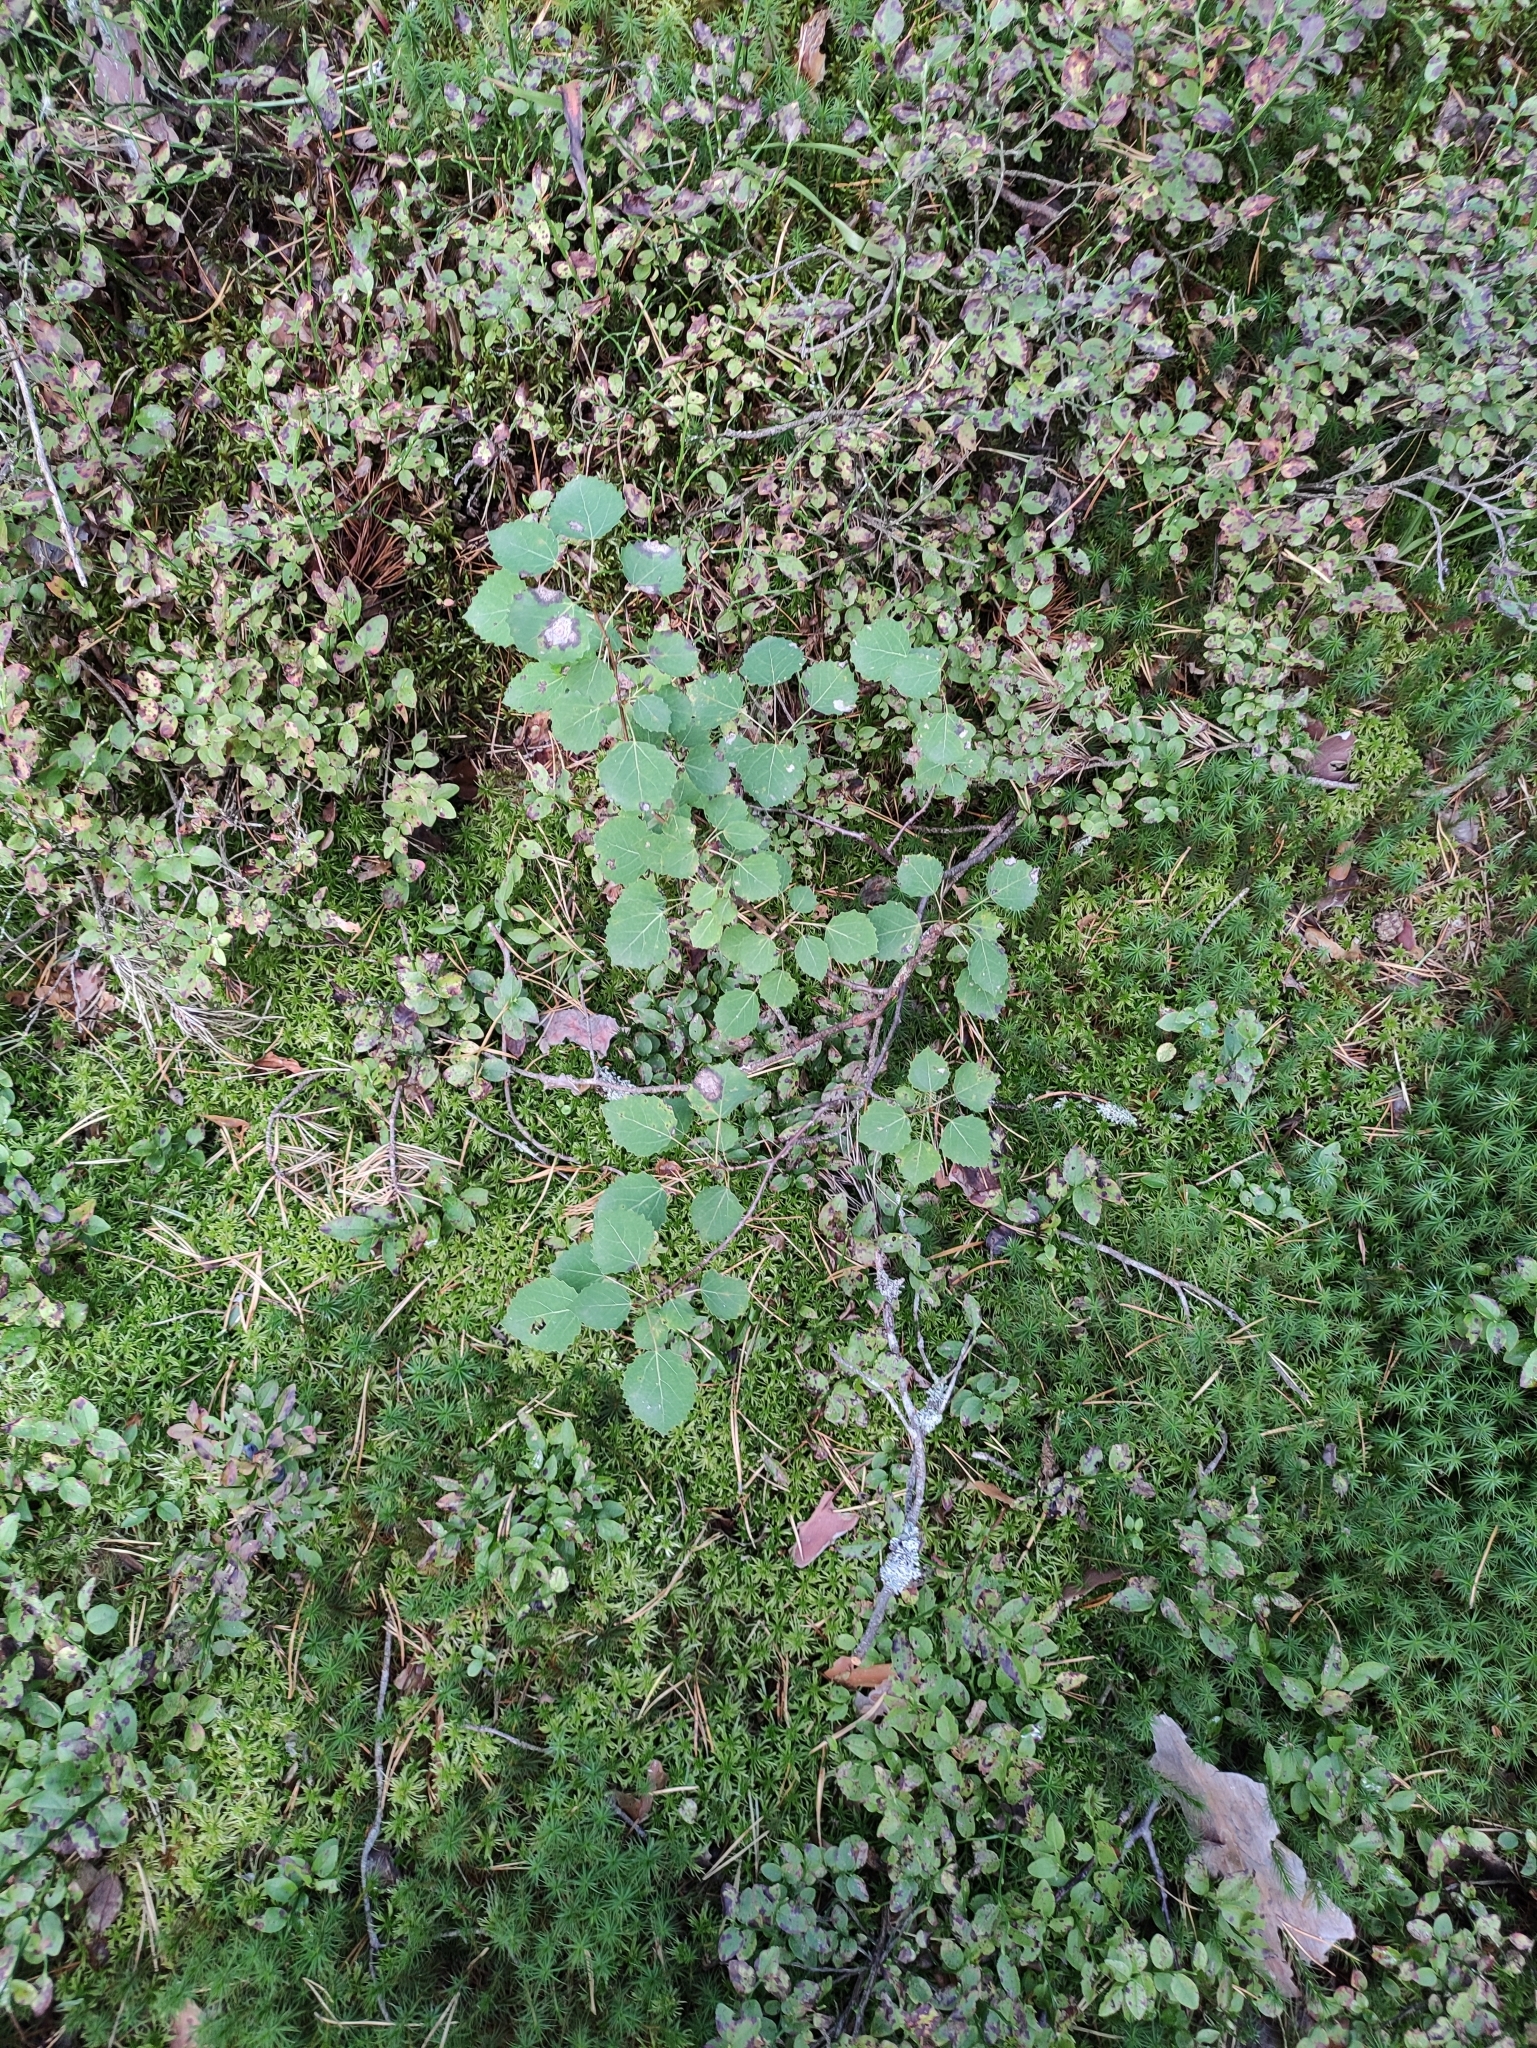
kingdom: Plantae
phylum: Tracheophyta
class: Magnoliopsida
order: Malpighiales
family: Salicaceae
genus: Populus
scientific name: Populus tremula
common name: European aspen
